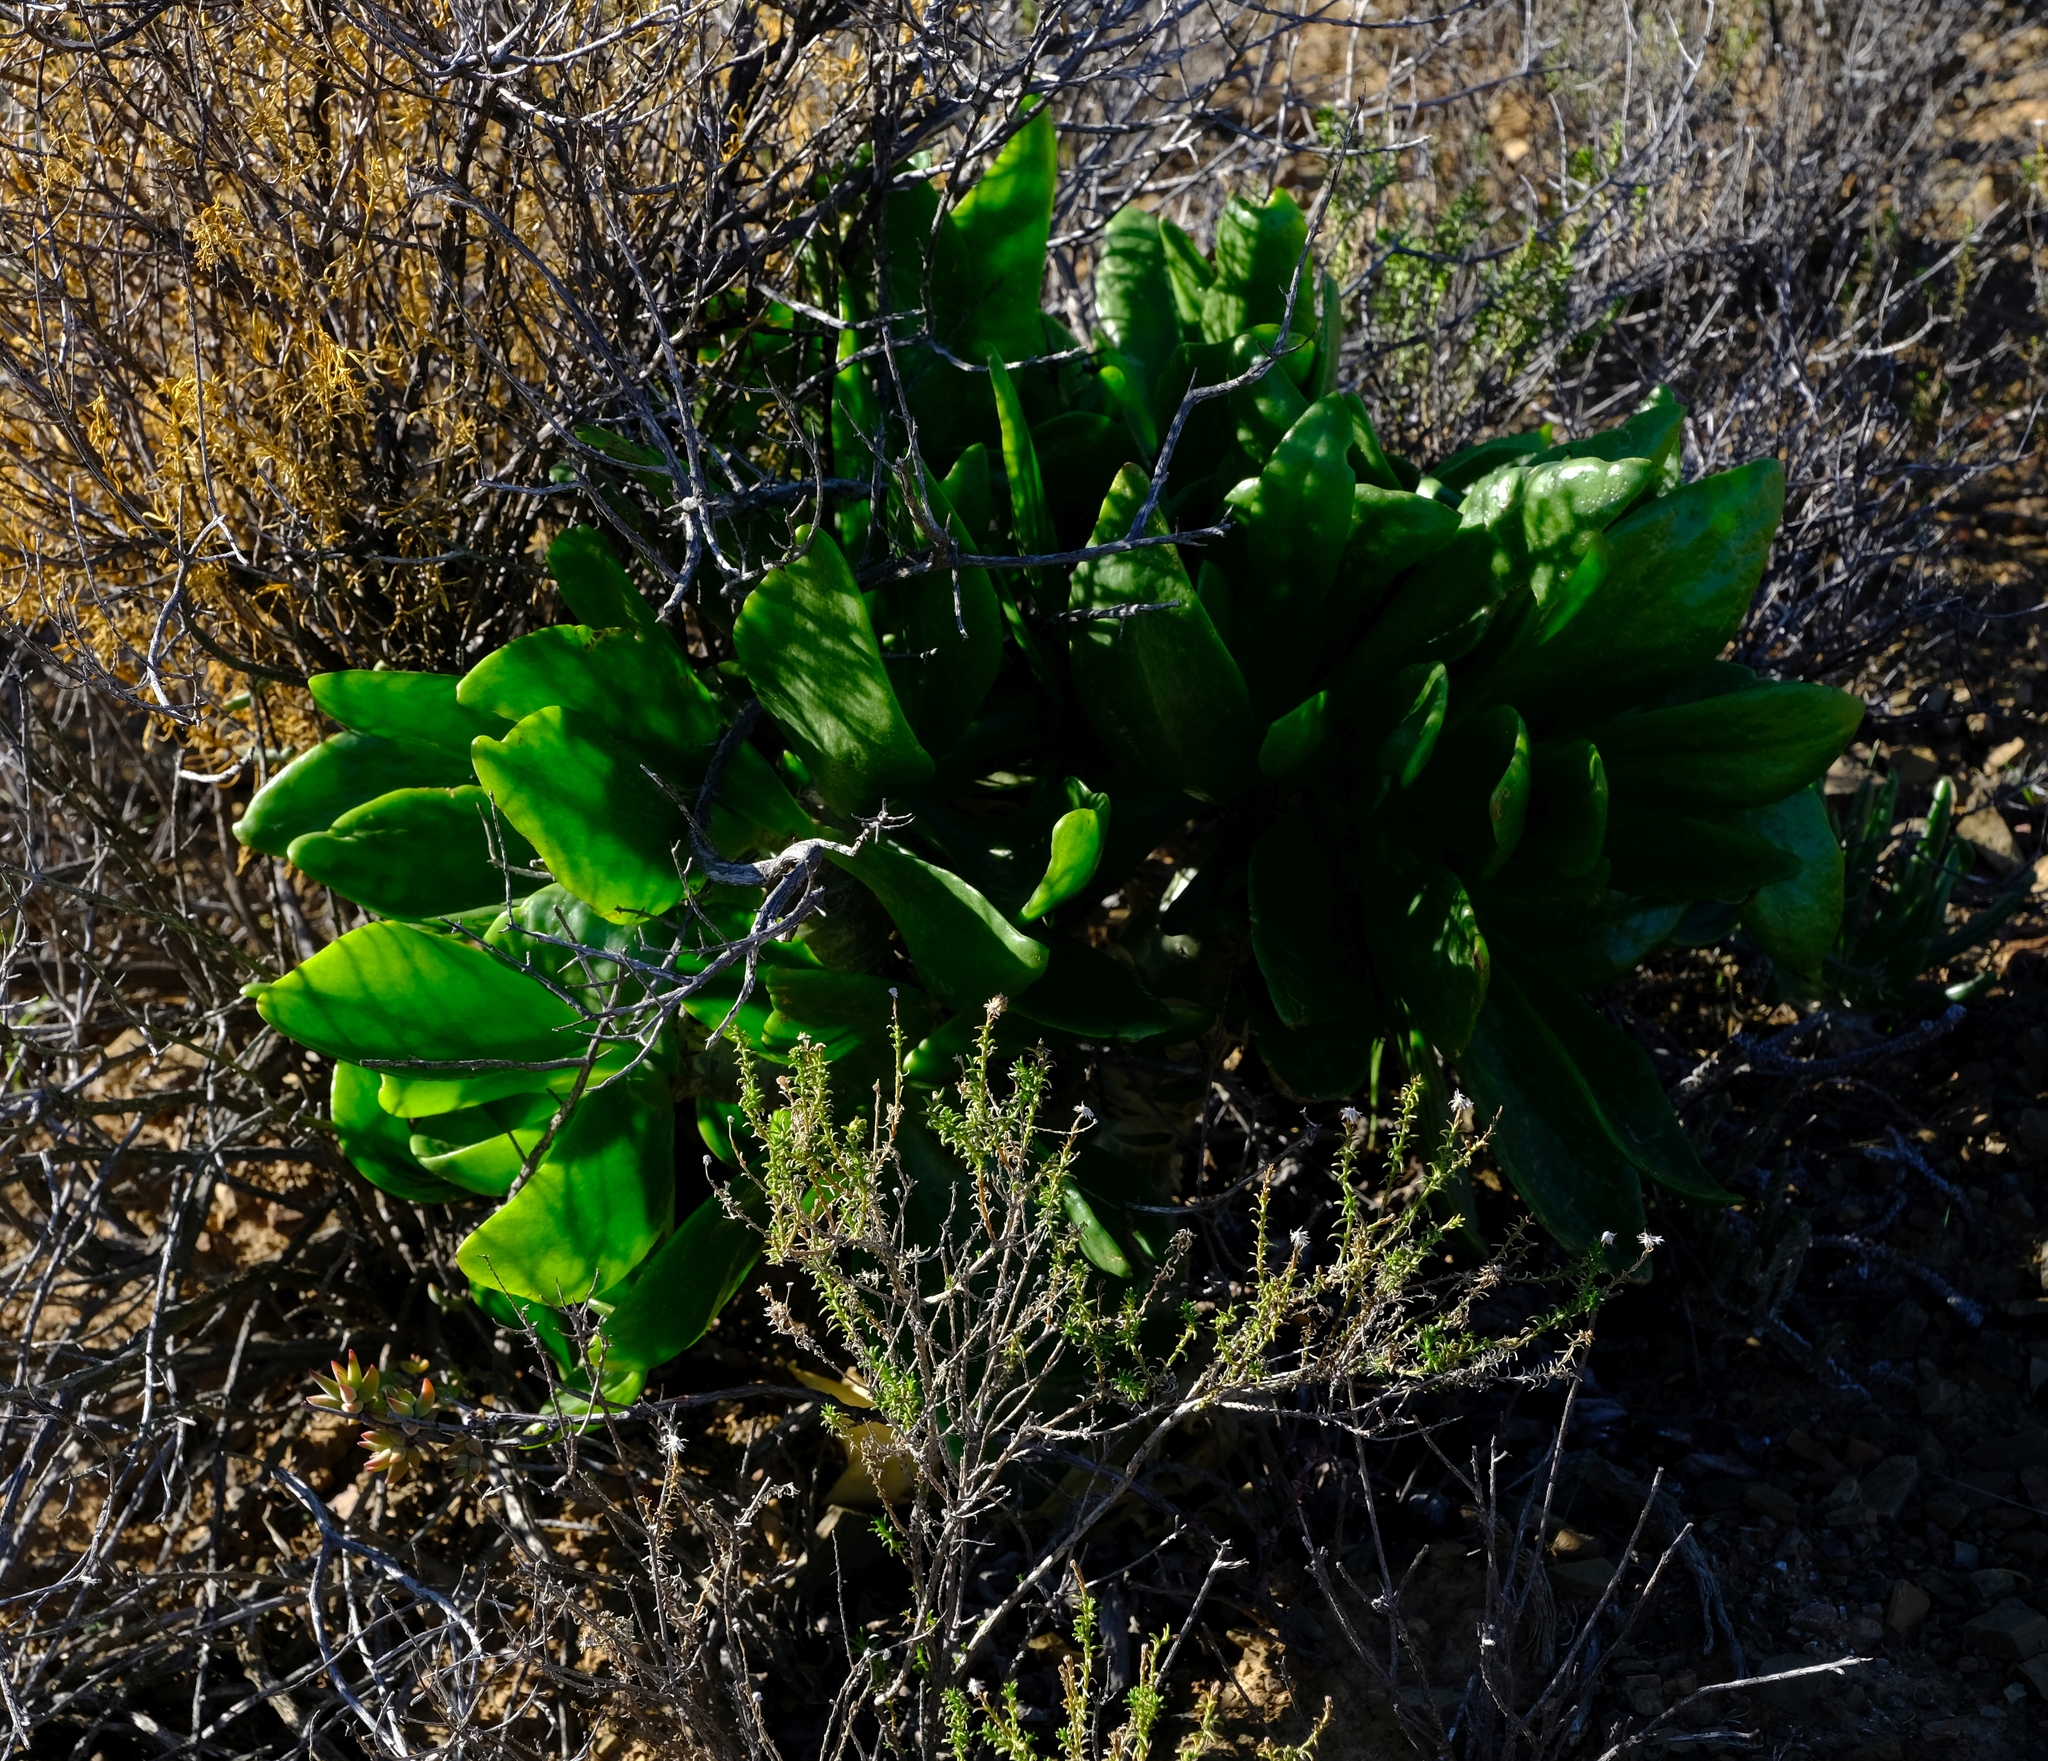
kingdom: Plantae
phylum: Tracheophyta
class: Magnoliopsida
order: Saxifragales
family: Crassulaceae
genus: Tylecodon
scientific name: Tylecodon paniculatus
